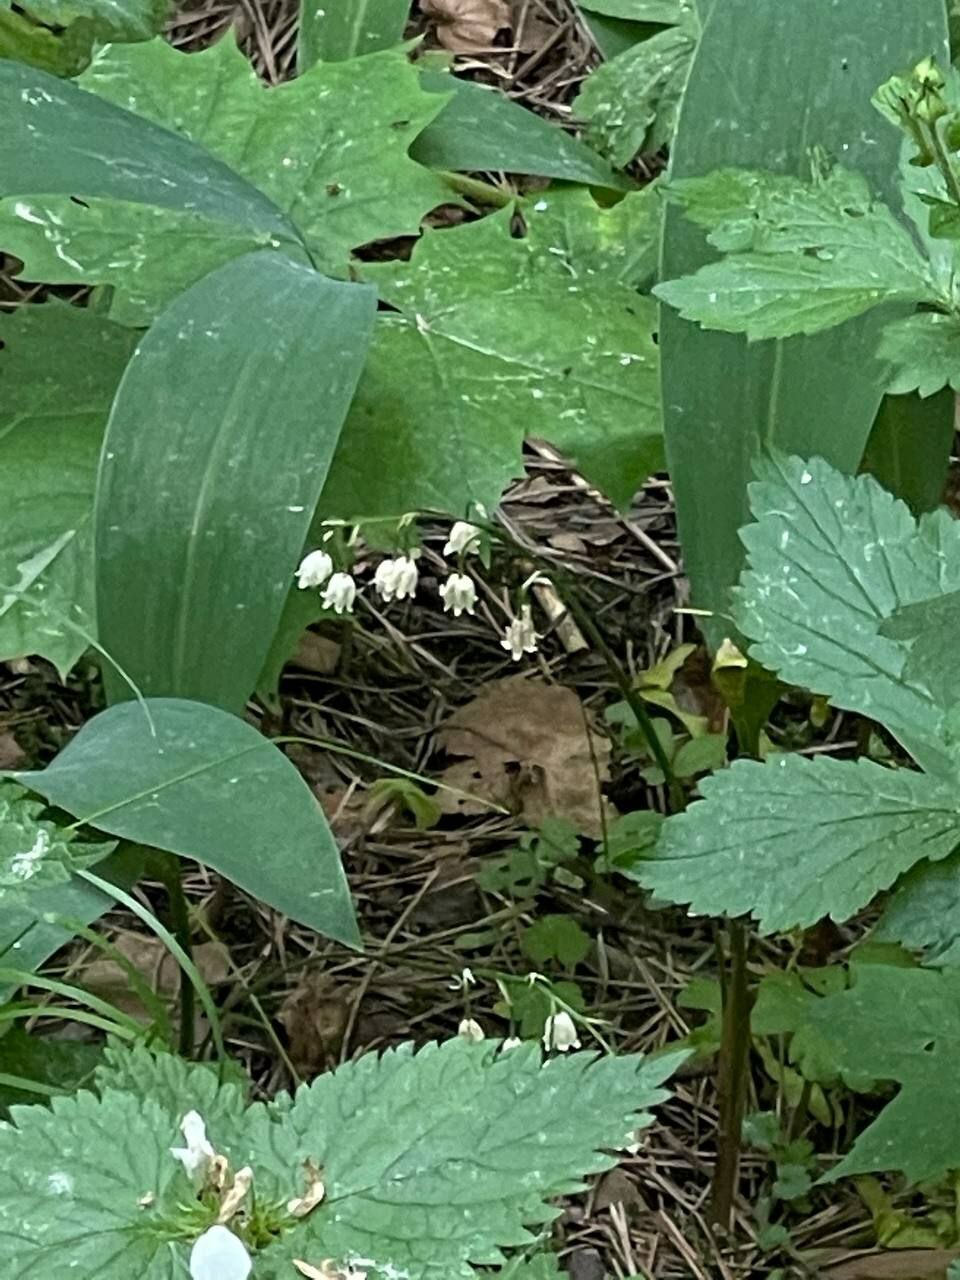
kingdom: Plantae
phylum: Tracheophyta
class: Liliopsida
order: Asparagales
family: Asparagaceae
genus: Convallaria
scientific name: Convallaria majalis
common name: Lily-of-the-valley
